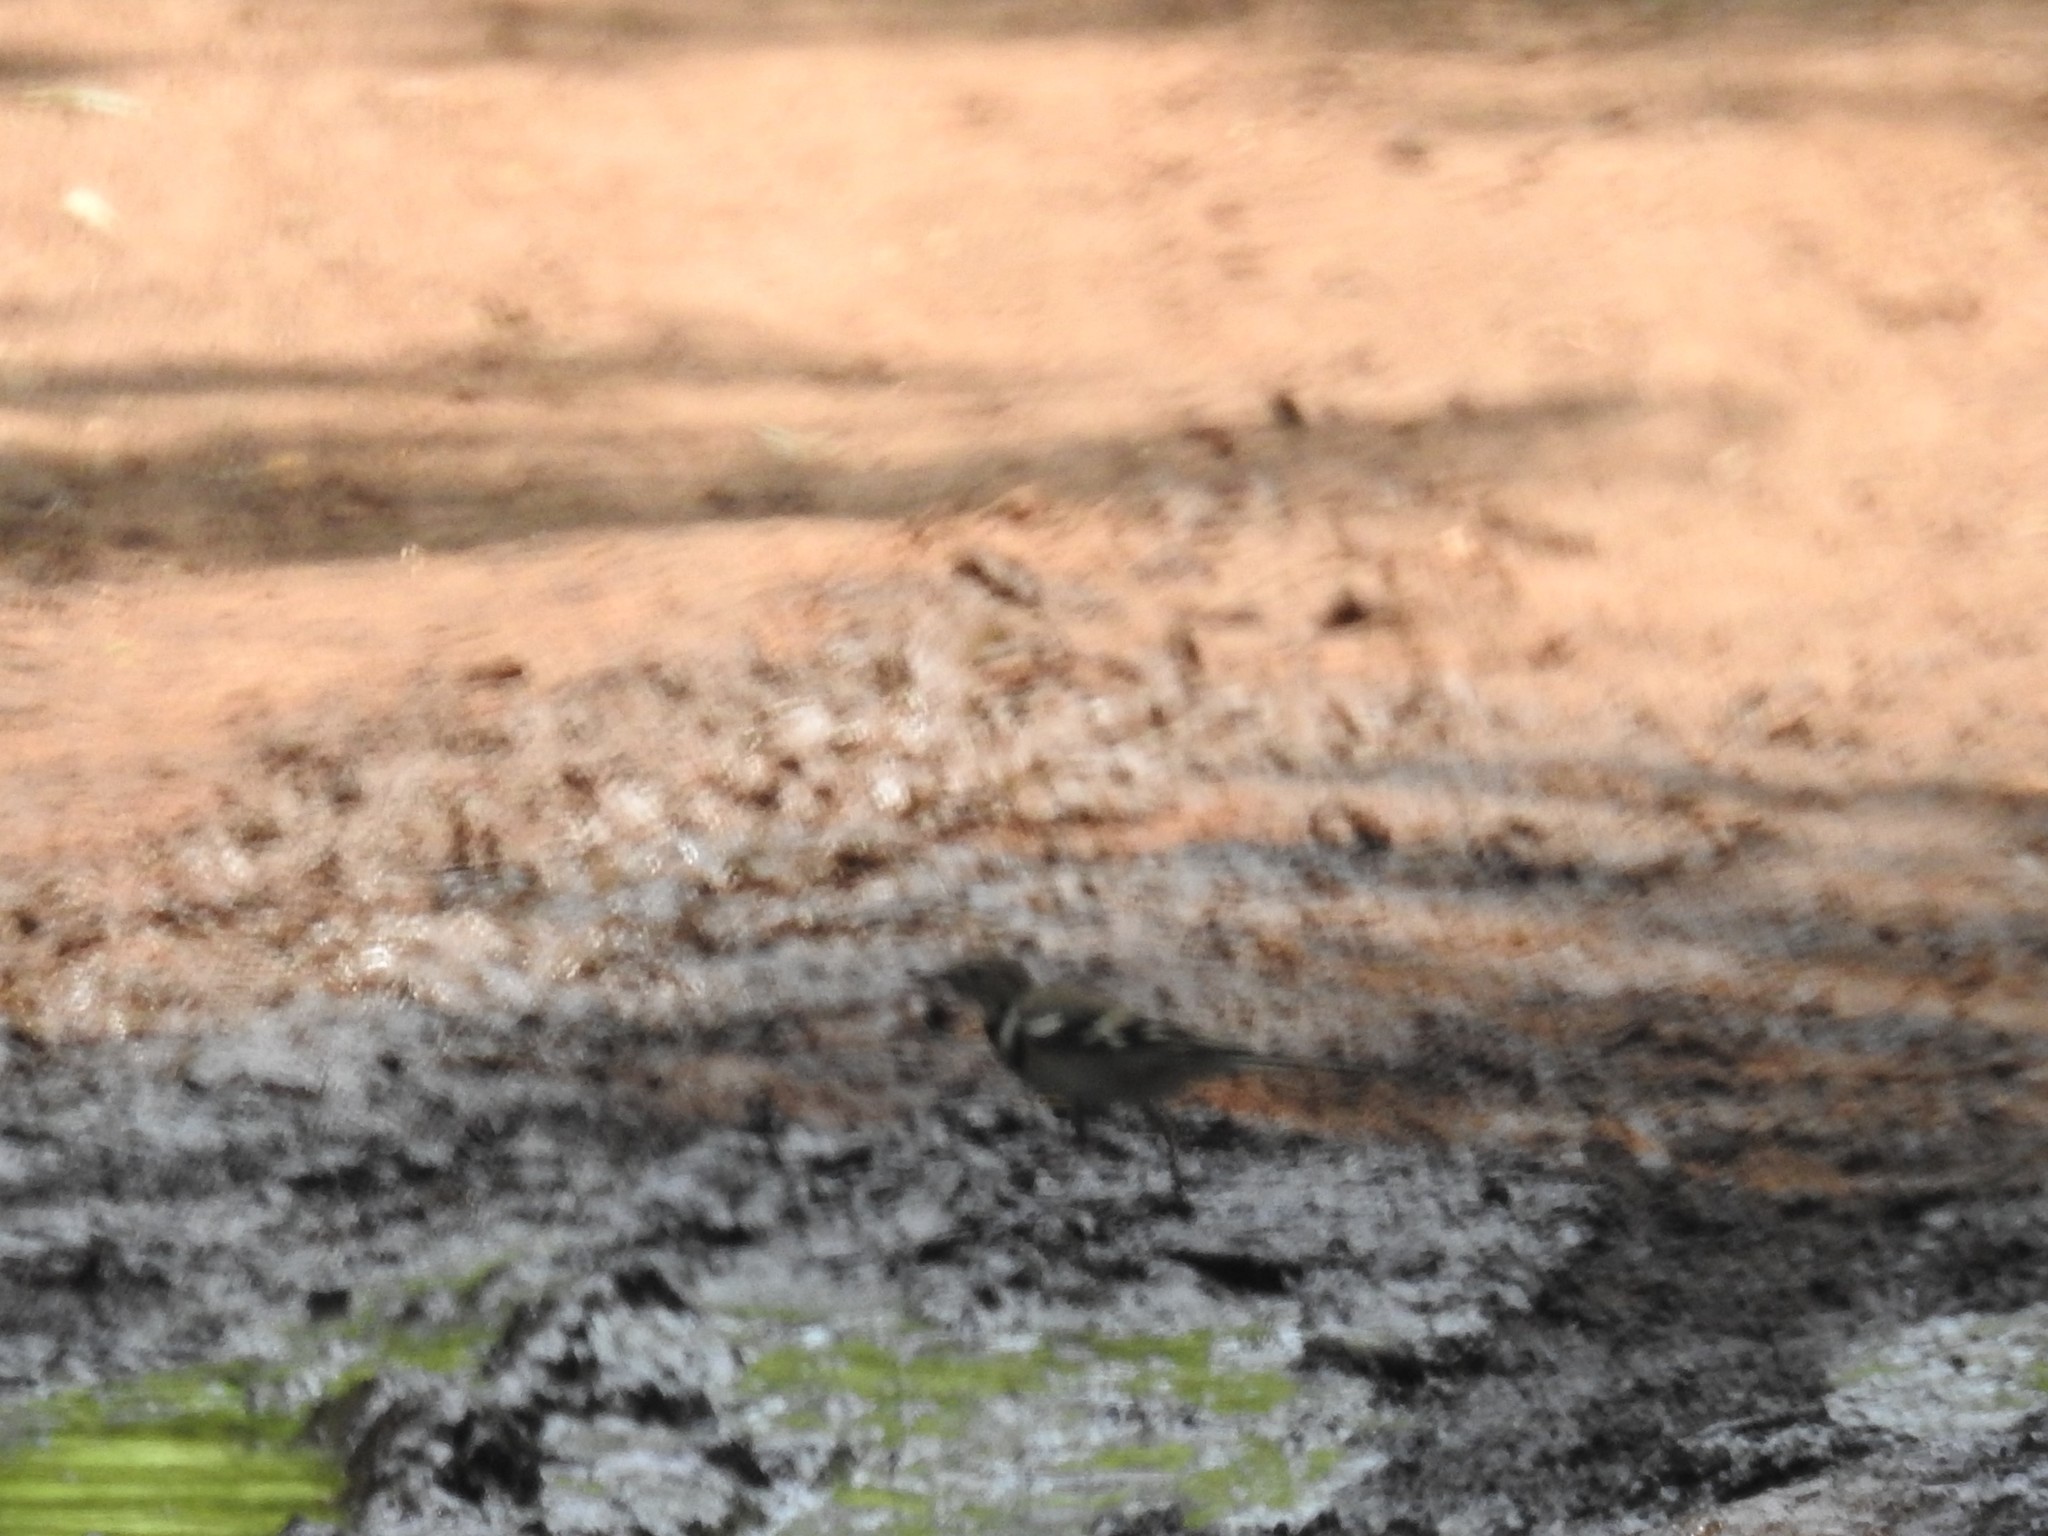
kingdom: Animalia
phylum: Chordata
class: Aves
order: Passeriformes
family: Motacillidae
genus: Dendronanthus
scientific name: Dendronanthus indicus
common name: Forest wagtail
